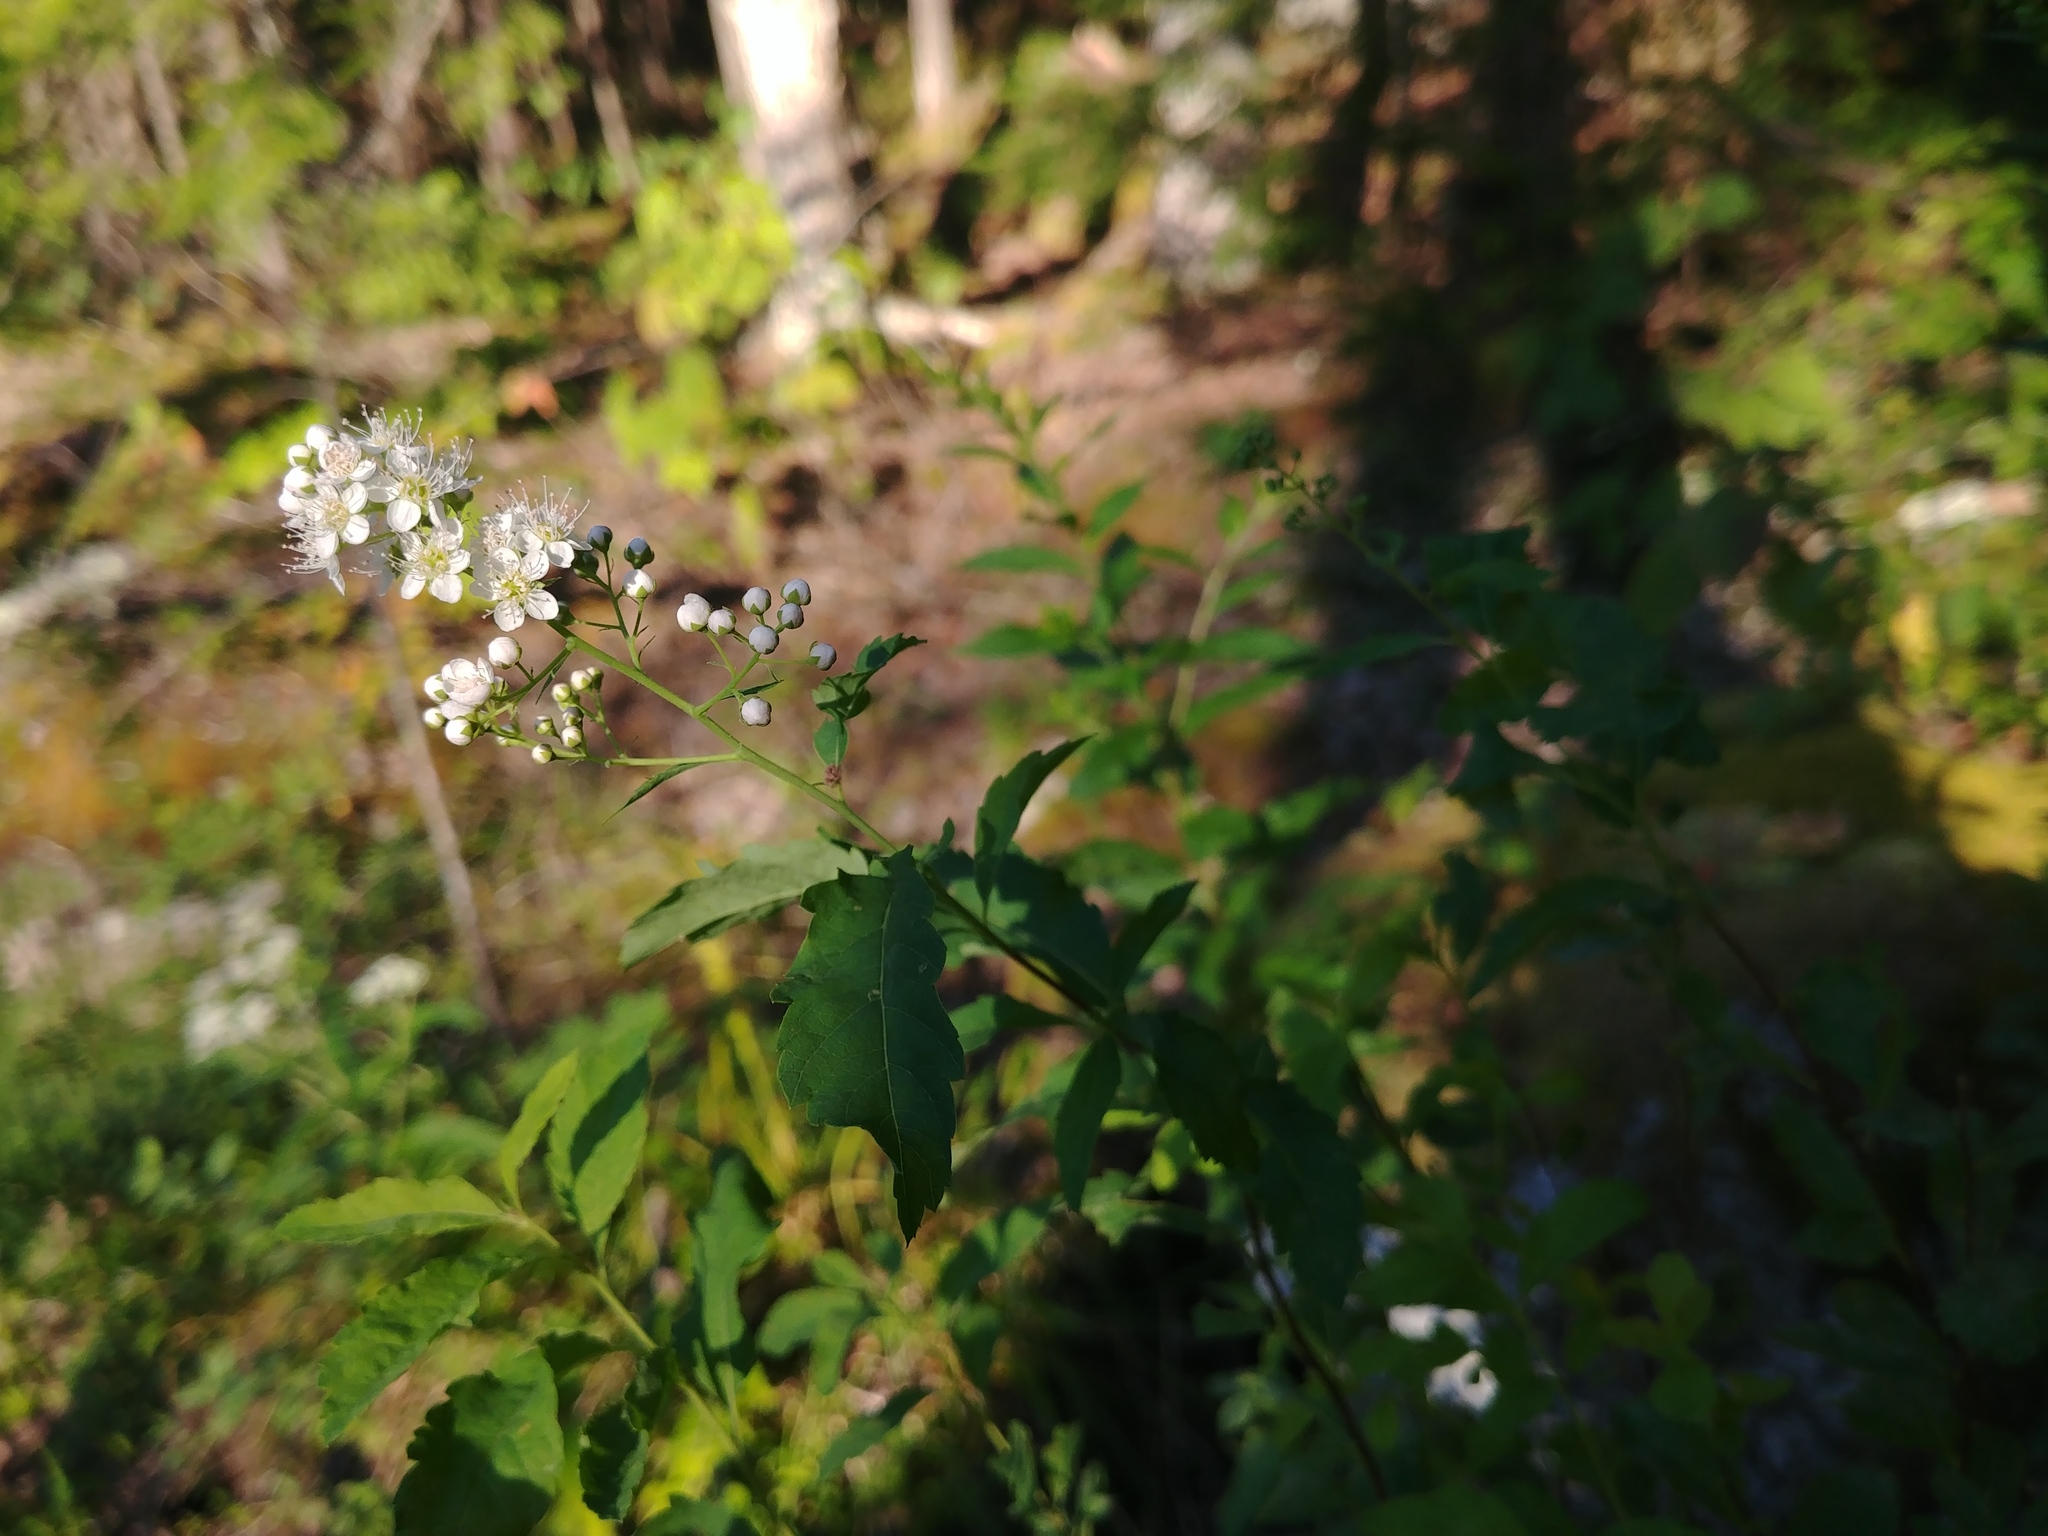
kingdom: Plantae
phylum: Tracheophyta
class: Magnoliopsida
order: Rosales
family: Rosaceae
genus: Spiraea
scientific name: Spiraea alba
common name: Pale bridewort
